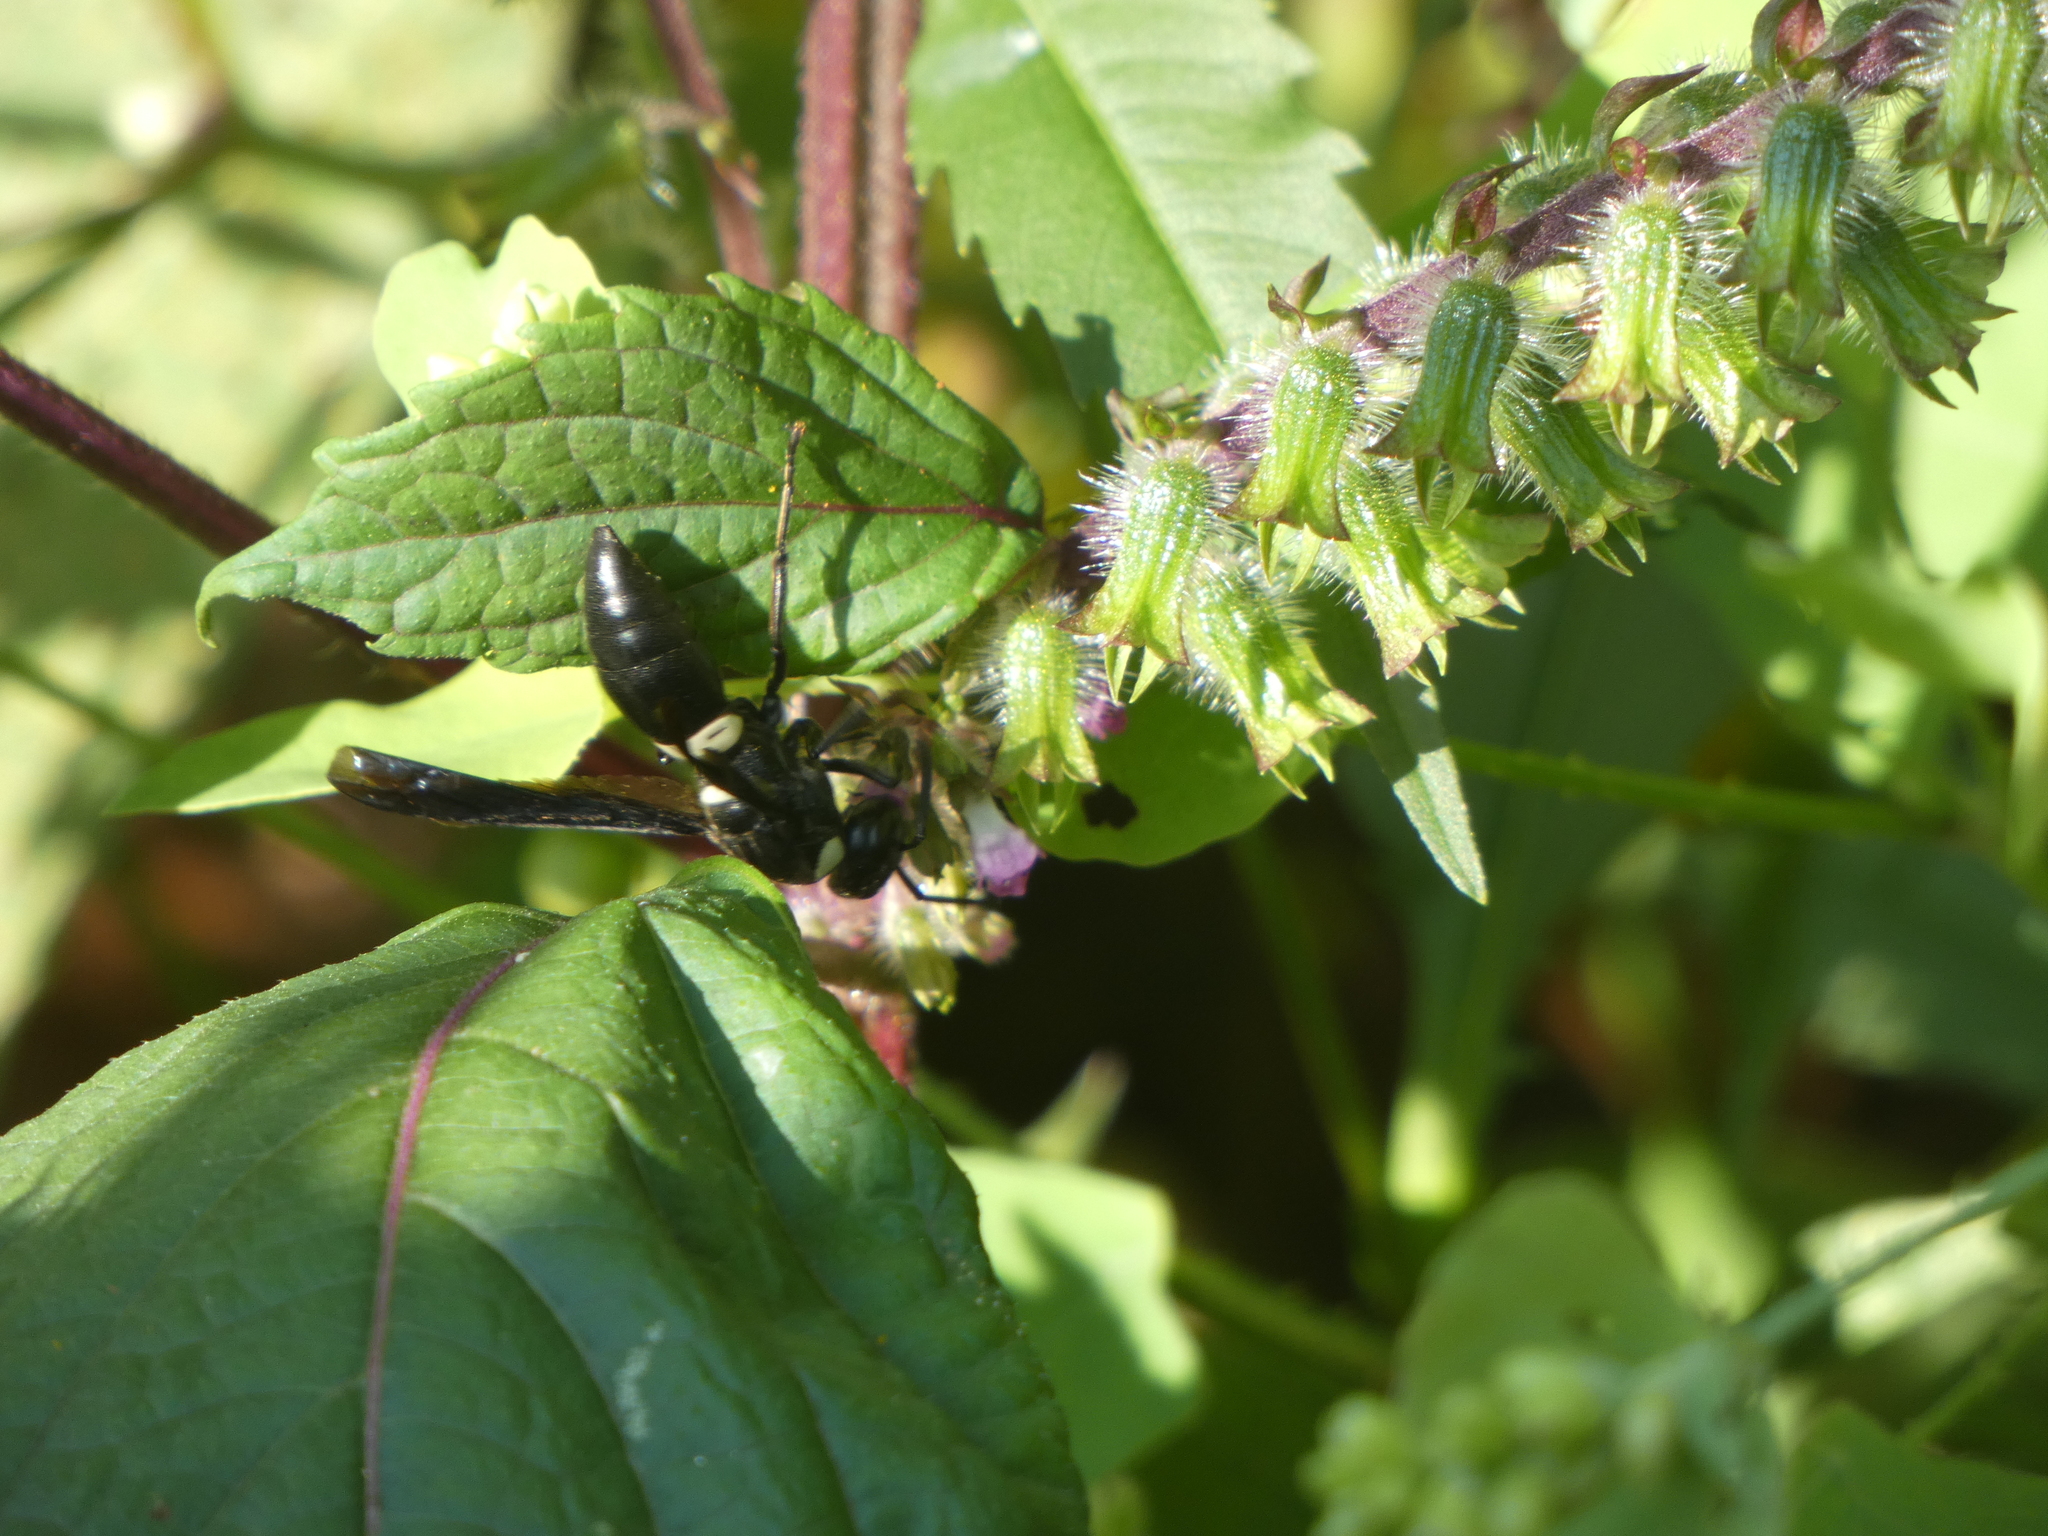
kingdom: Animalia
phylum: Arthropoda
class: Insecta
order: Hymenoptera
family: Eumenidae
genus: Monobia
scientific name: Monobia quadridens
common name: Four-toothed mason wasp
